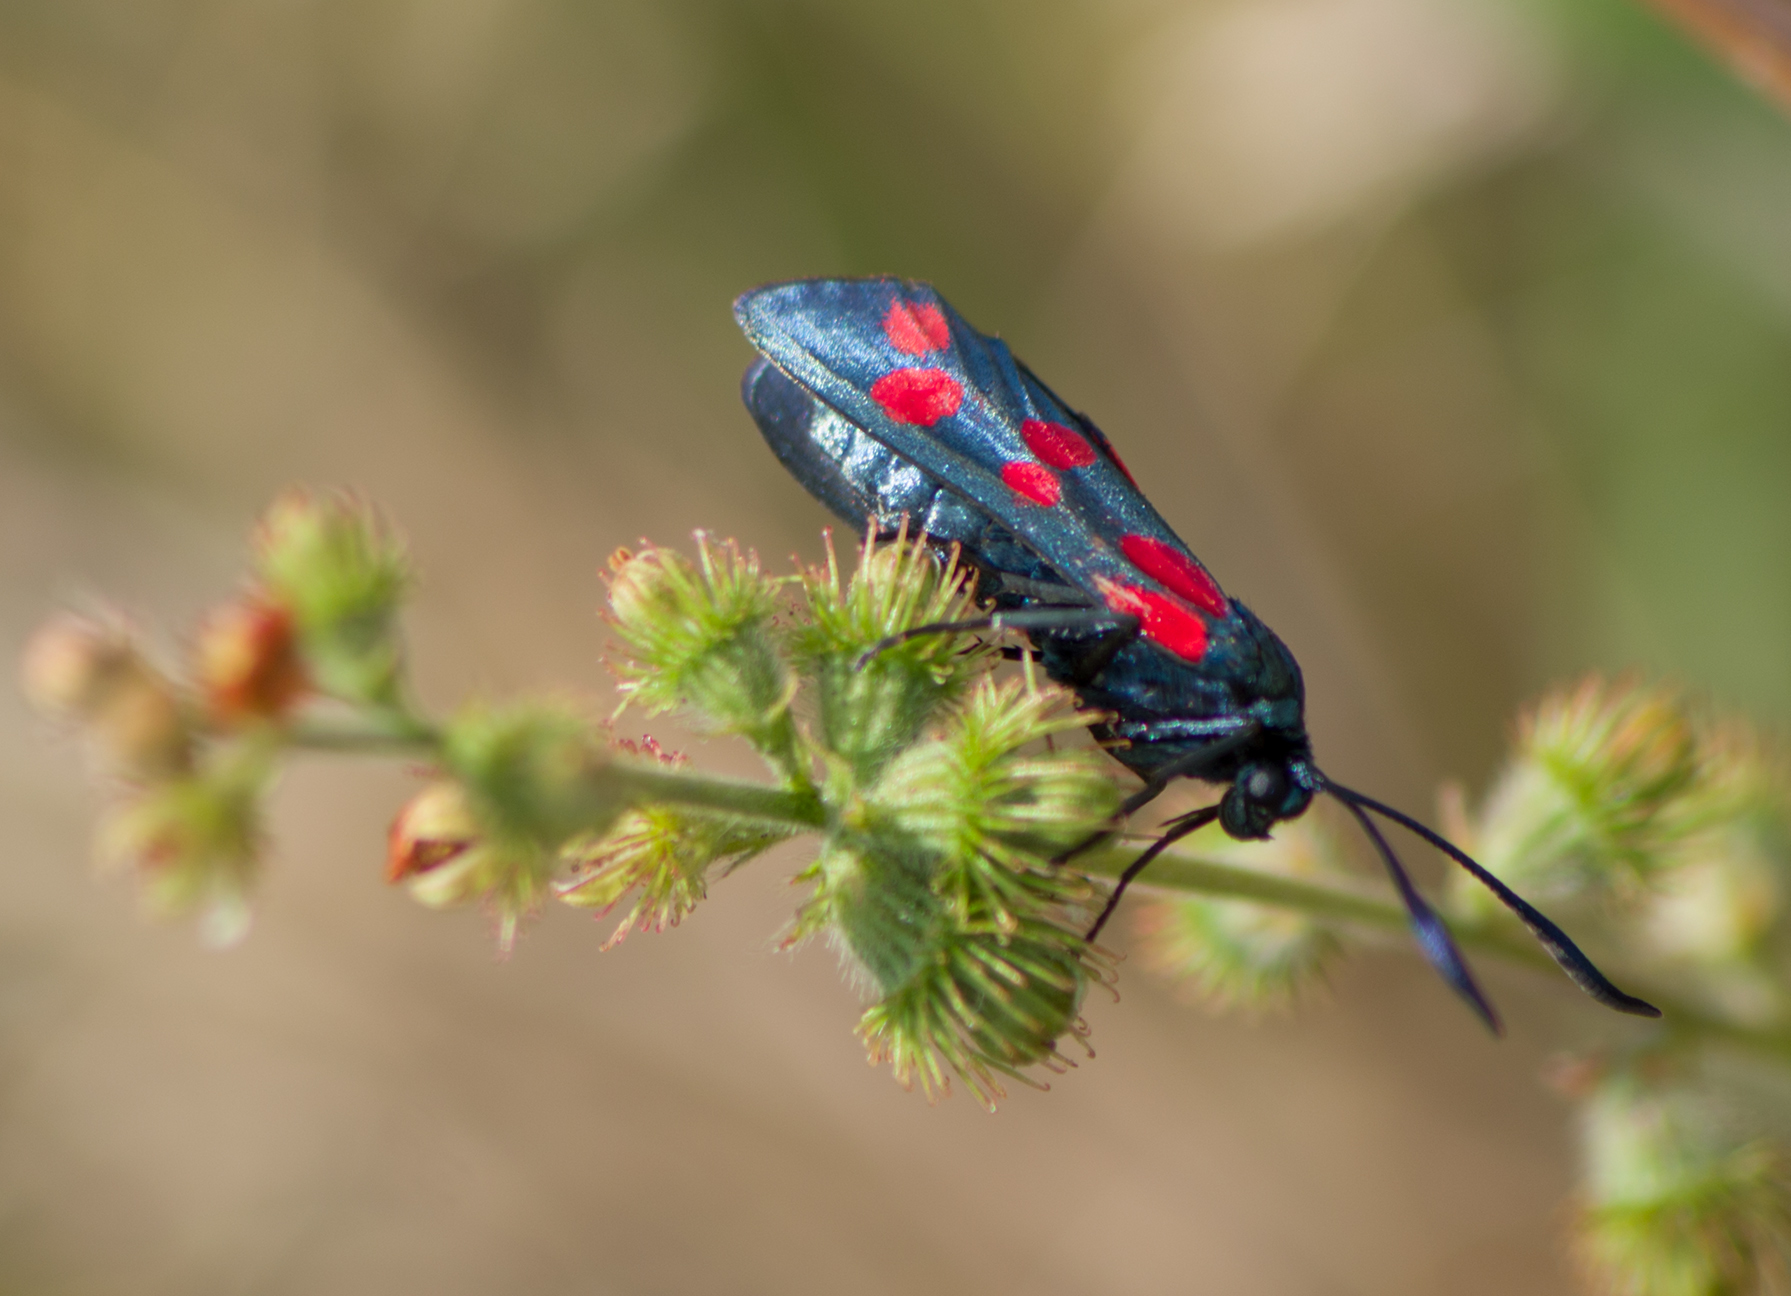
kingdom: Animalia
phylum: Arthropoda
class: Insecta
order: Lepidoptera
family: Zygaenidae
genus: Zygaena
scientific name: Zygaena filipendulae
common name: Six-spot burnet
